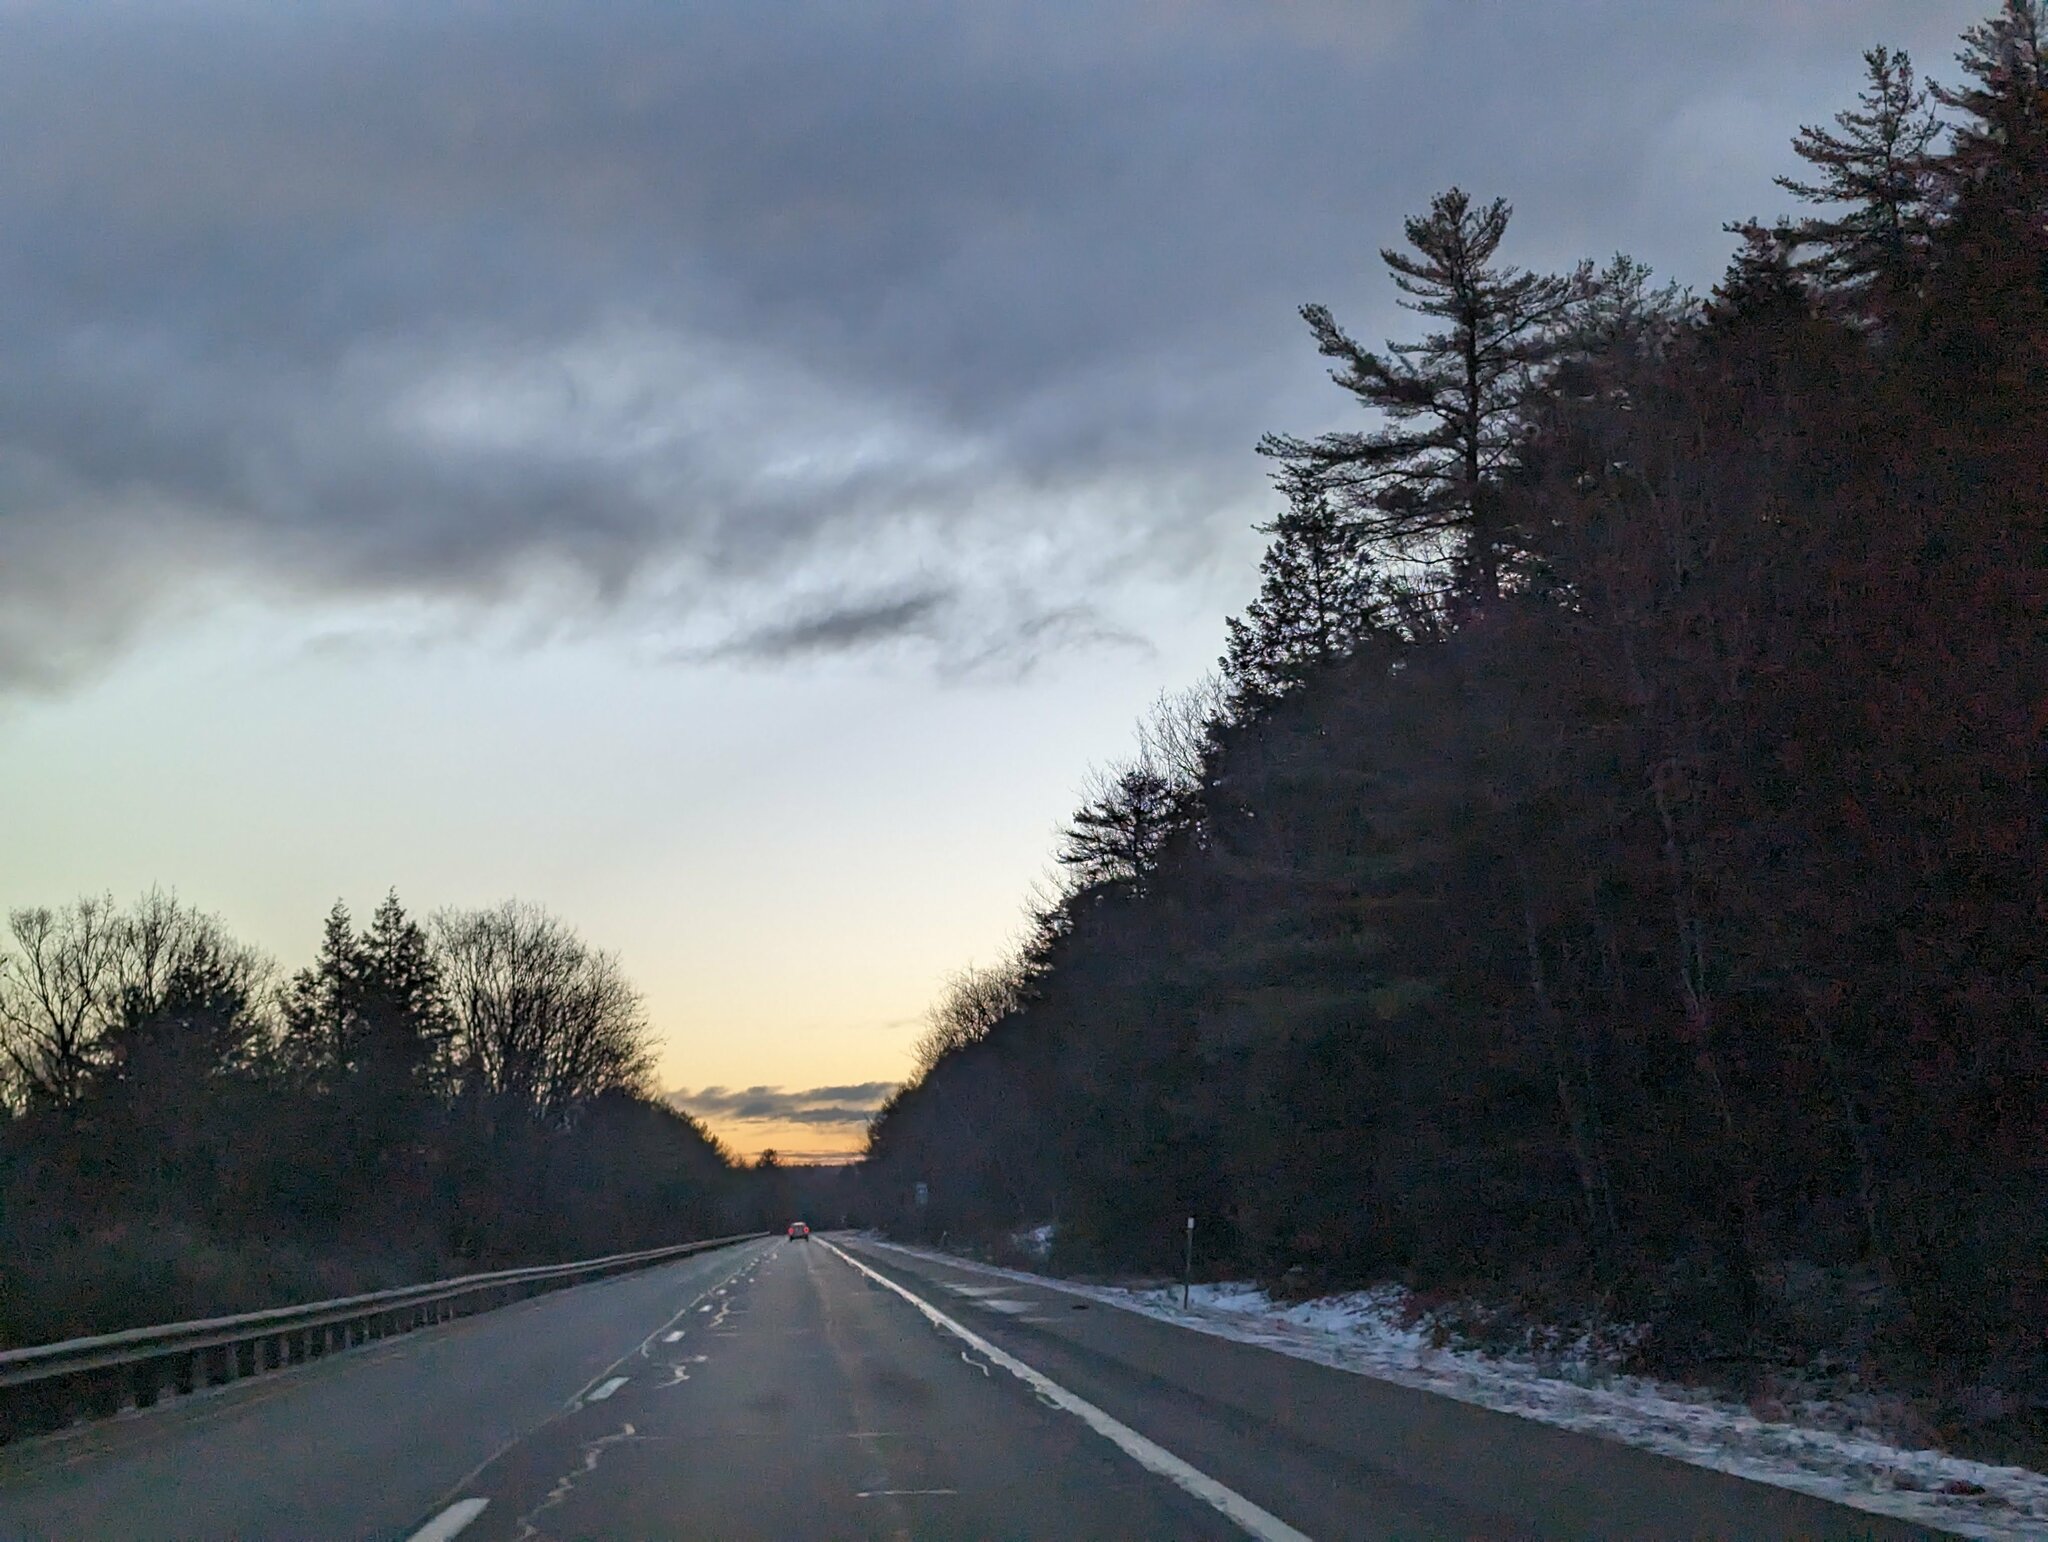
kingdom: Plantae
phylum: Tracheophyta
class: Pinopsida
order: Pinales
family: Pinaceae
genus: Pinus
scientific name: Pinus strobus
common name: Weymouth pine
